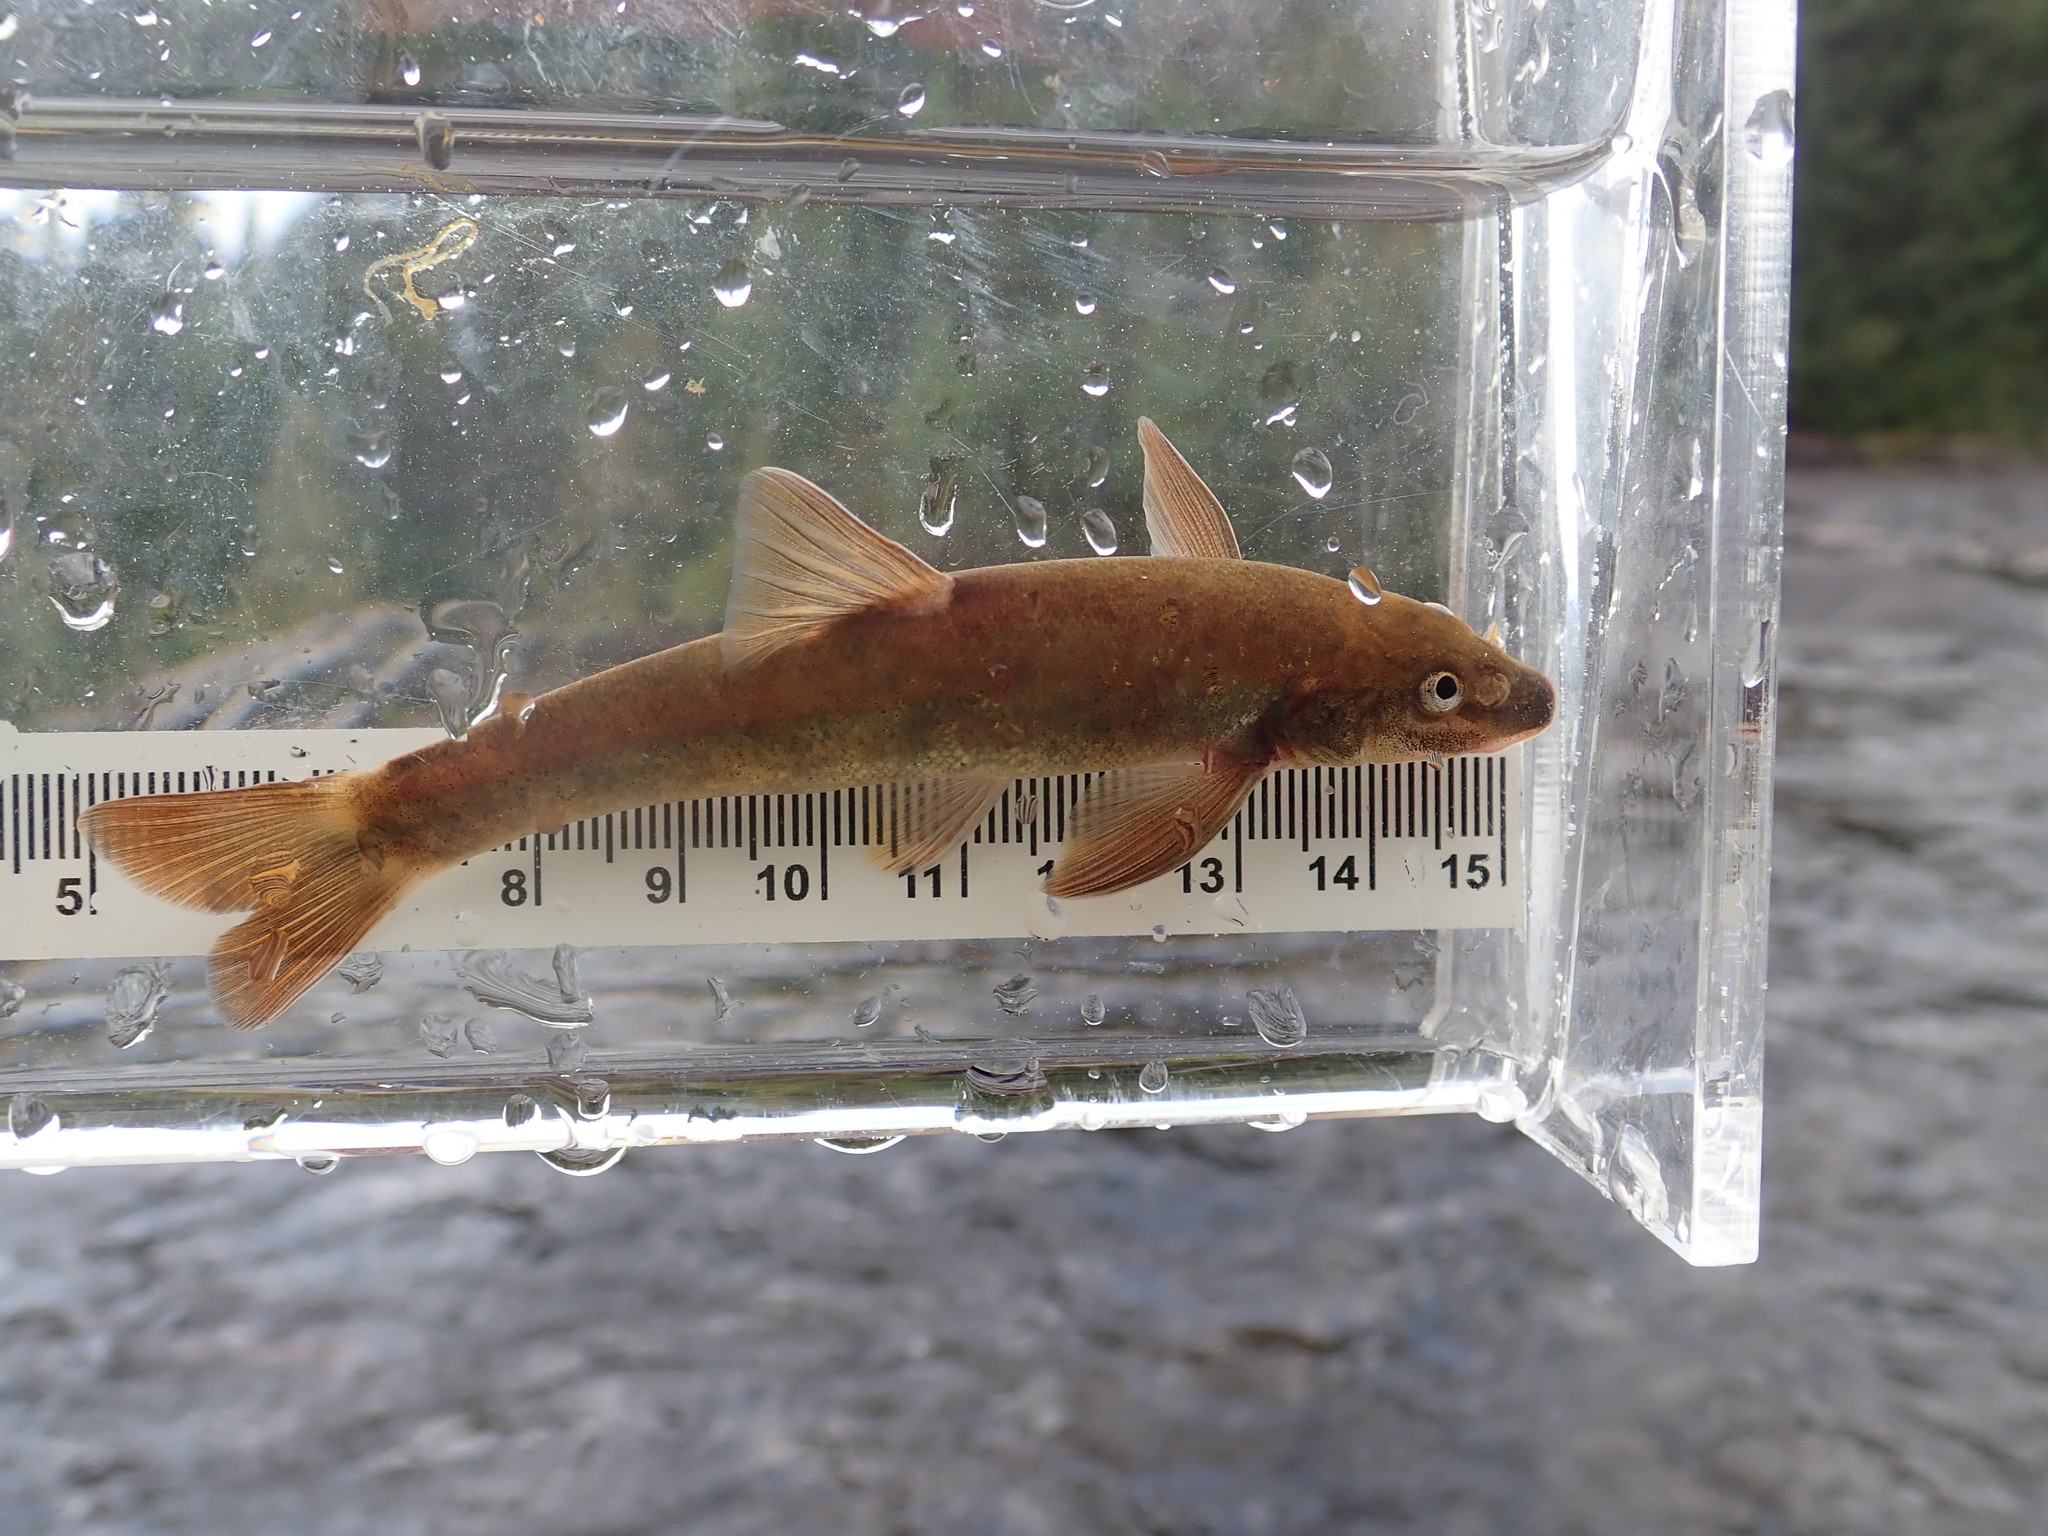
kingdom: Animalia
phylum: Chordata
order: Cypriniformes
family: Cyprinidae
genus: Rhinichthys
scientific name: Rhinichthys cataractae
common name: Longnose dace
